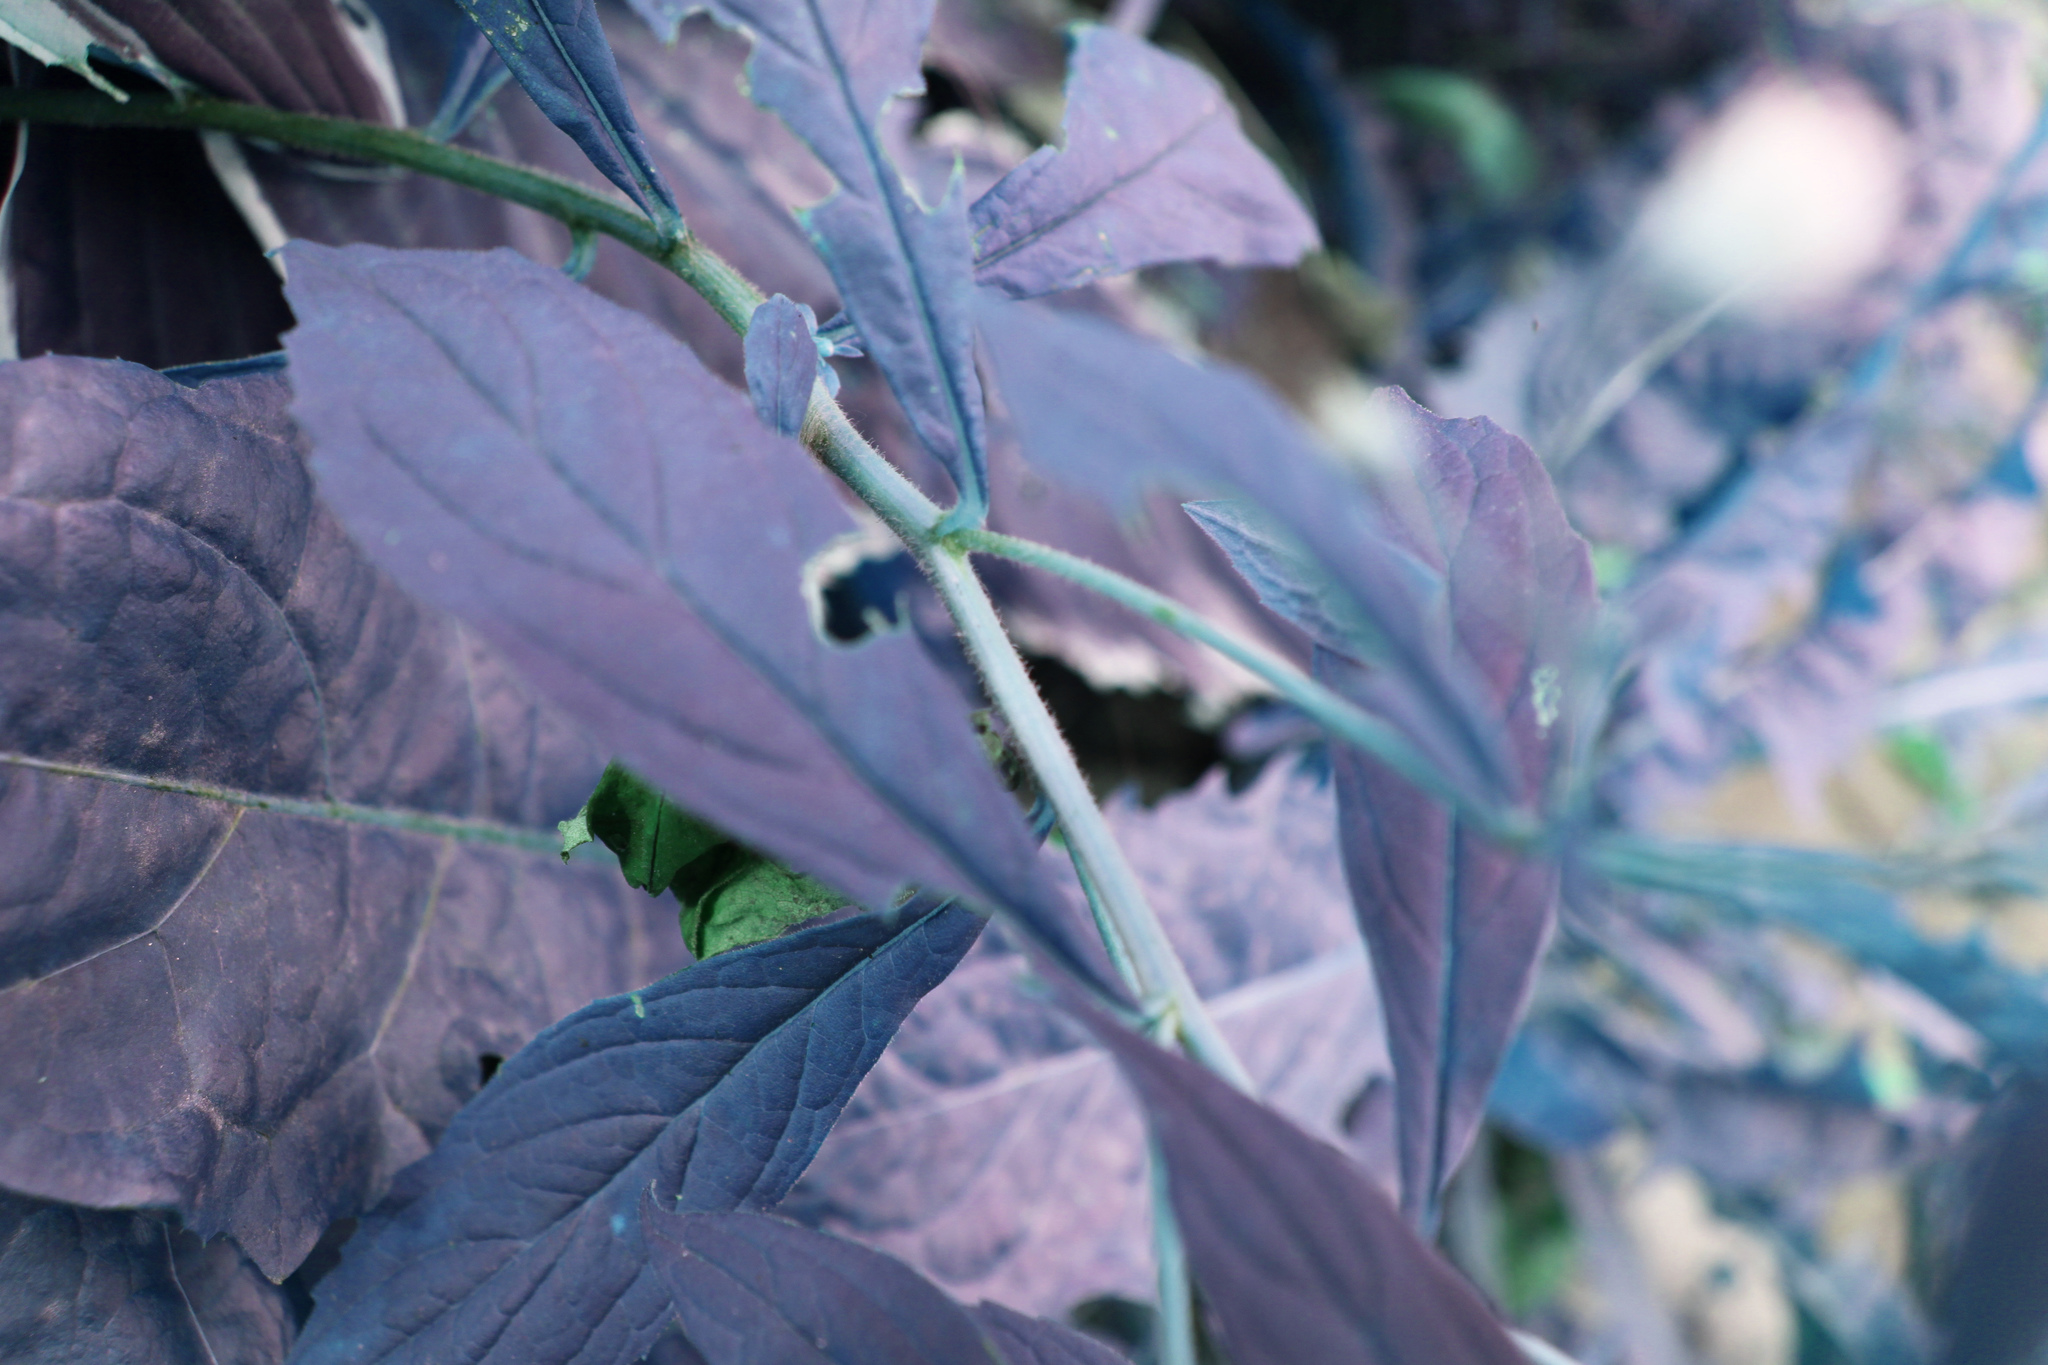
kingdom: Plantae
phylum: Tracheophyta
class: Magnoliopsida
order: Asterales
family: Asteraceae
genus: Oclemena
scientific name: Oclemena acuminata
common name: Mountain aster
